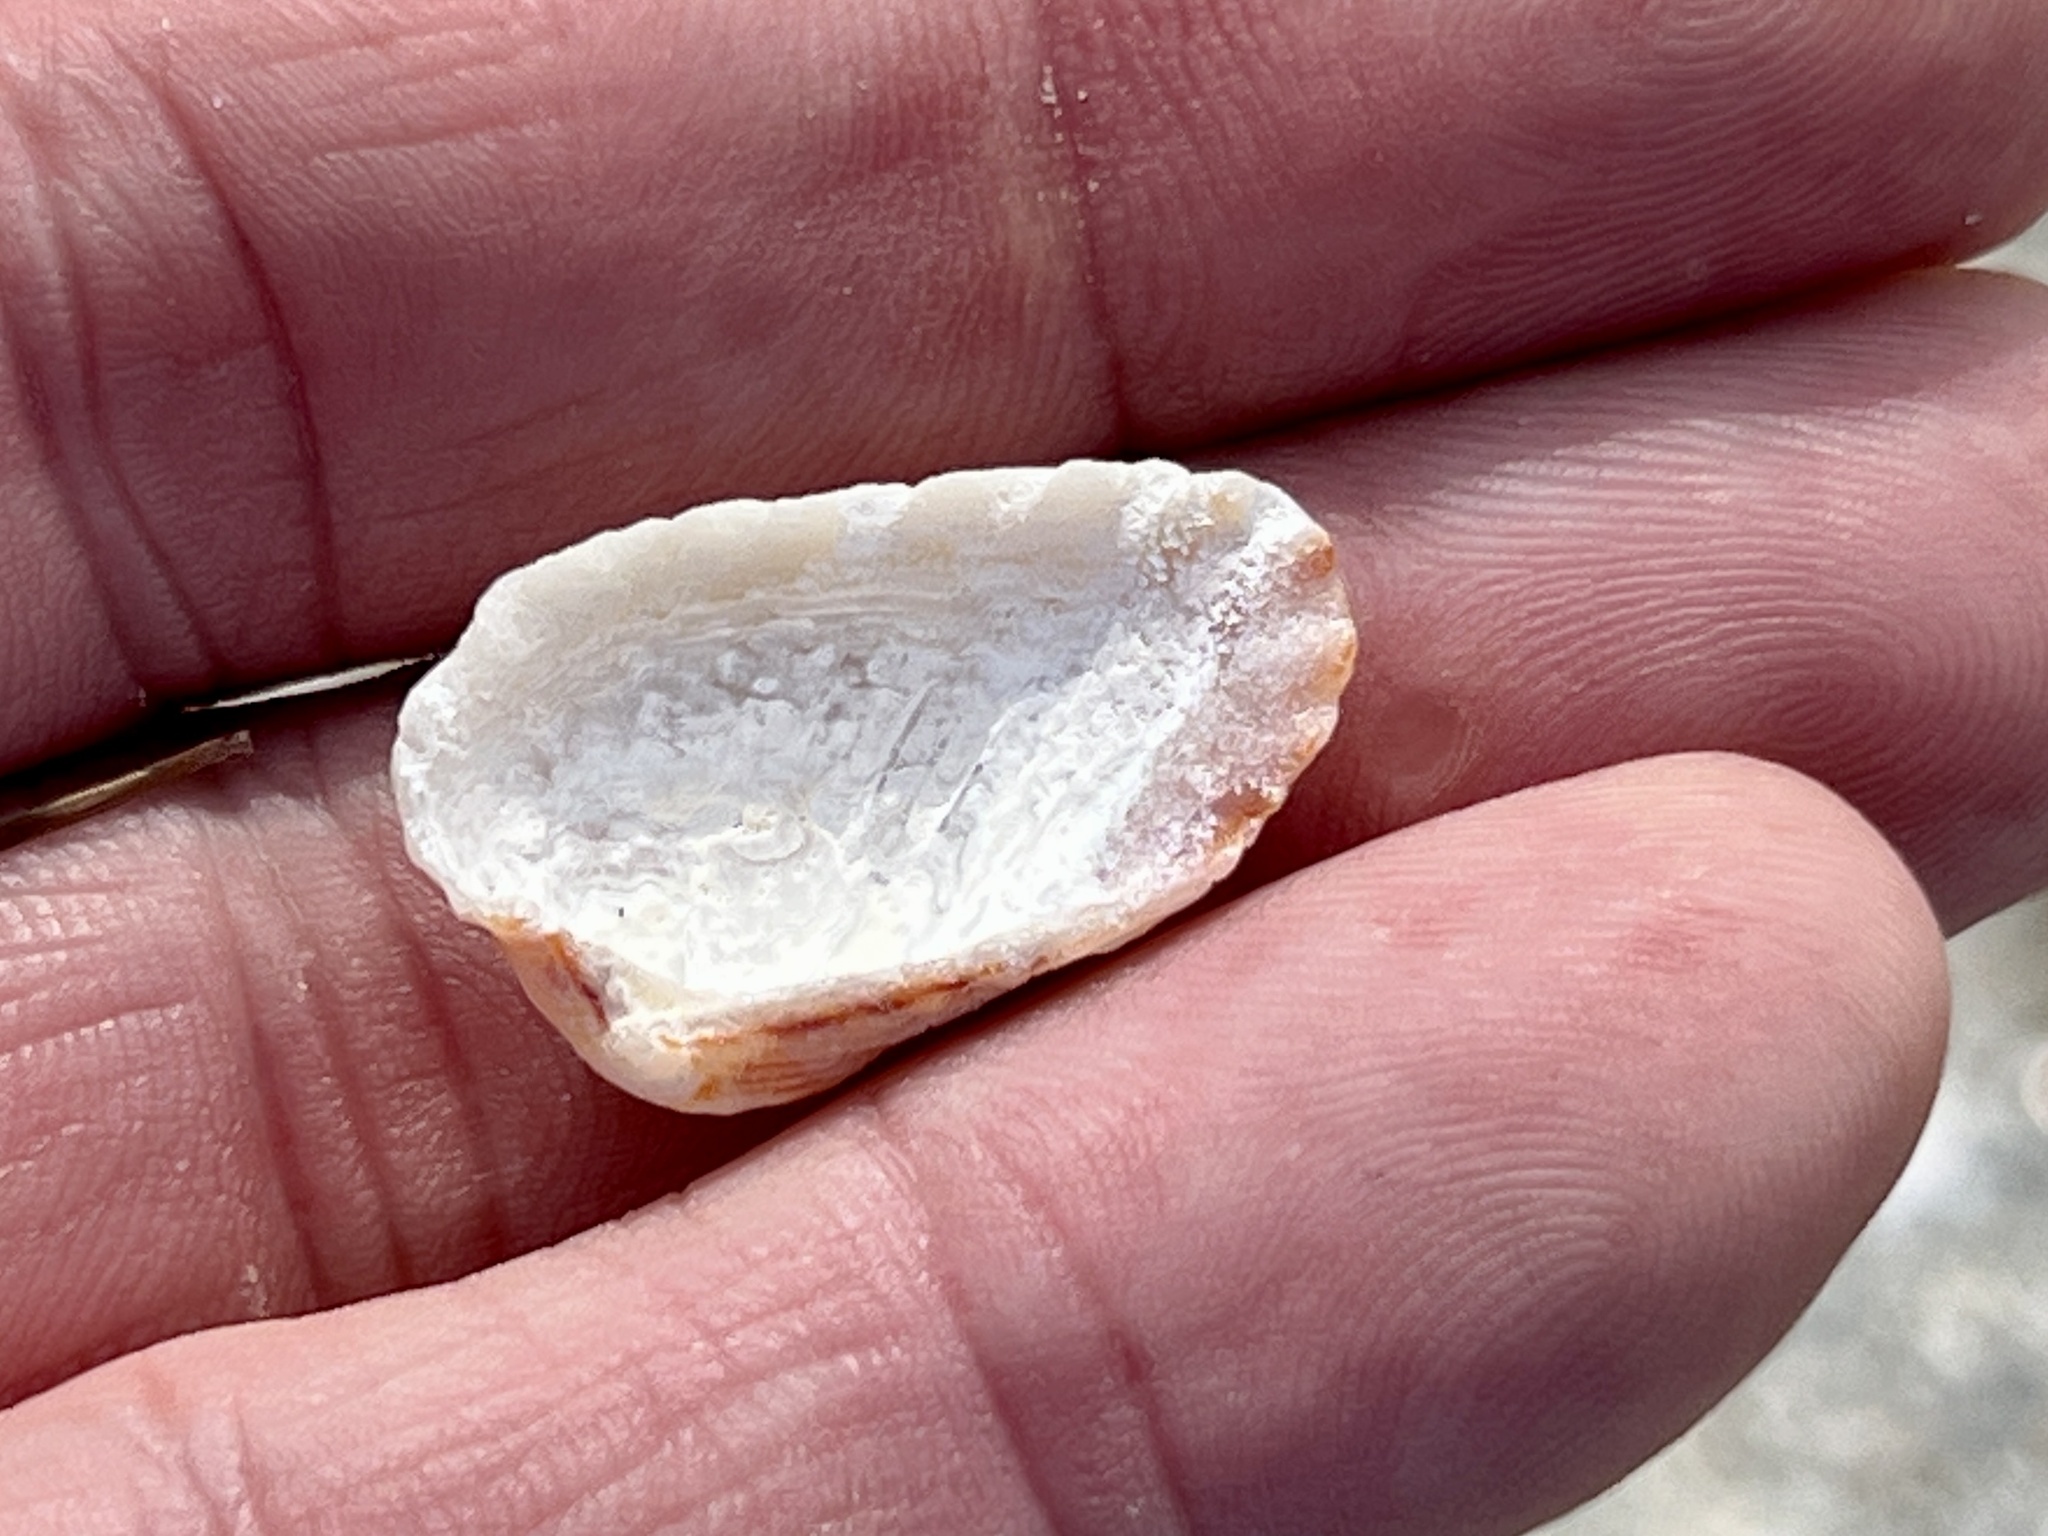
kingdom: Animalia
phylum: Mollusca
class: Bivalvia
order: Carditida
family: Carditidae
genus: Cardites
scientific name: Cardites floridanus
